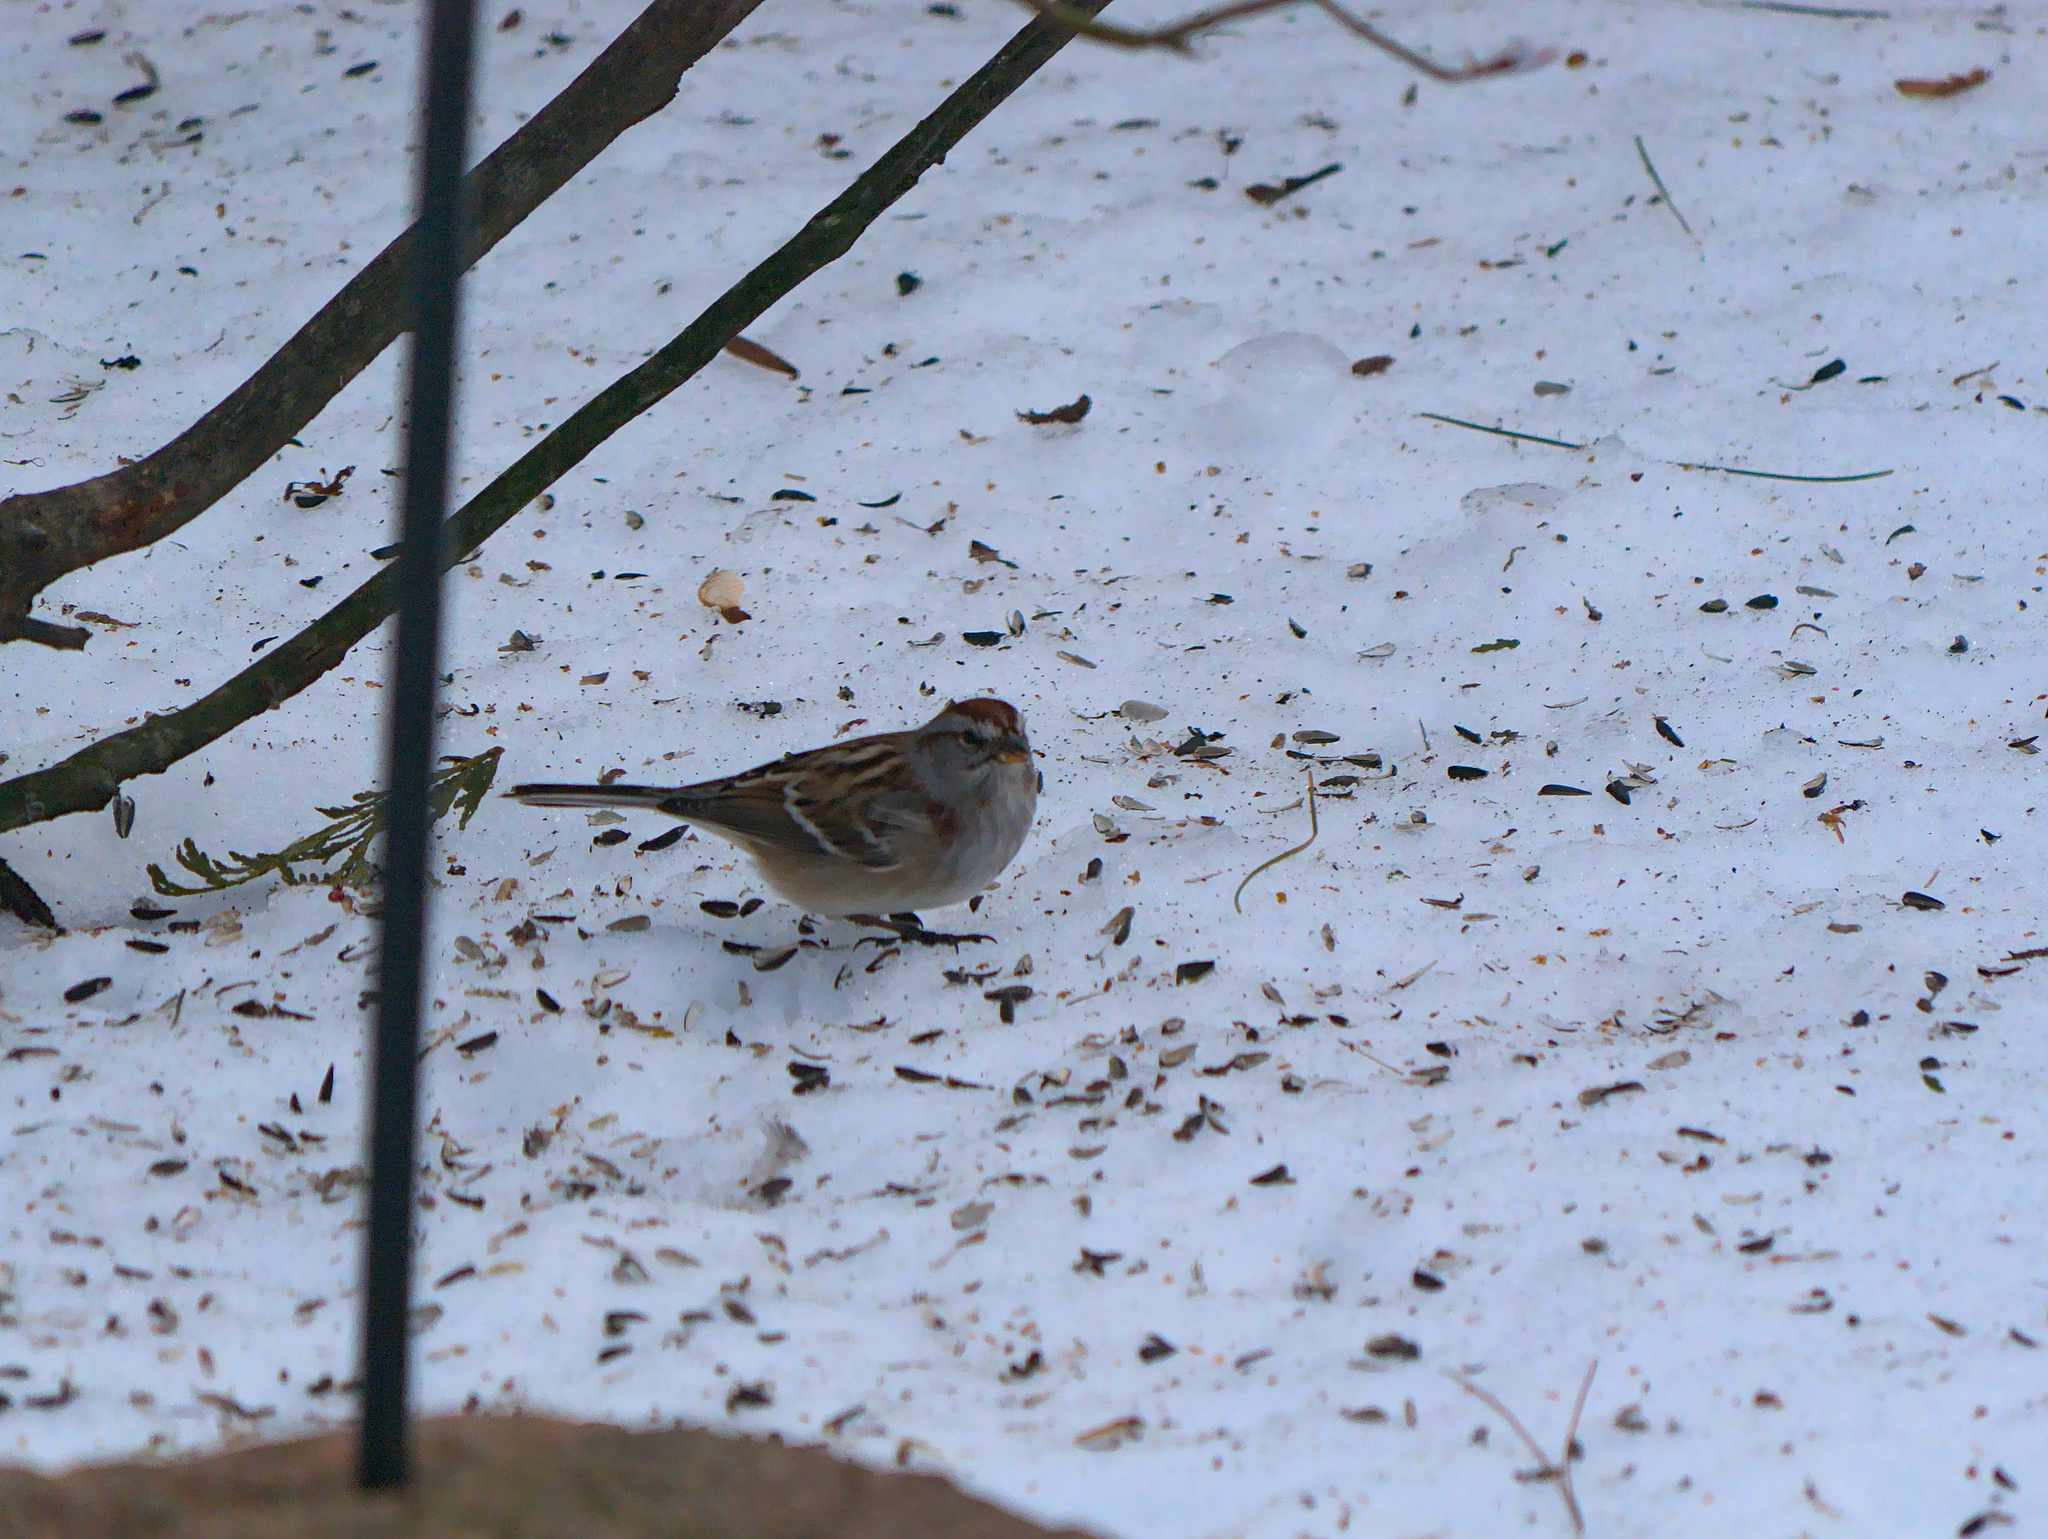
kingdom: Animalia
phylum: Chordata
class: Aves
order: Passeriformes
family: Passerellidae
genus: Spizelloides
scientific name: Spizelloides arborea
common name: American tree sparrow
